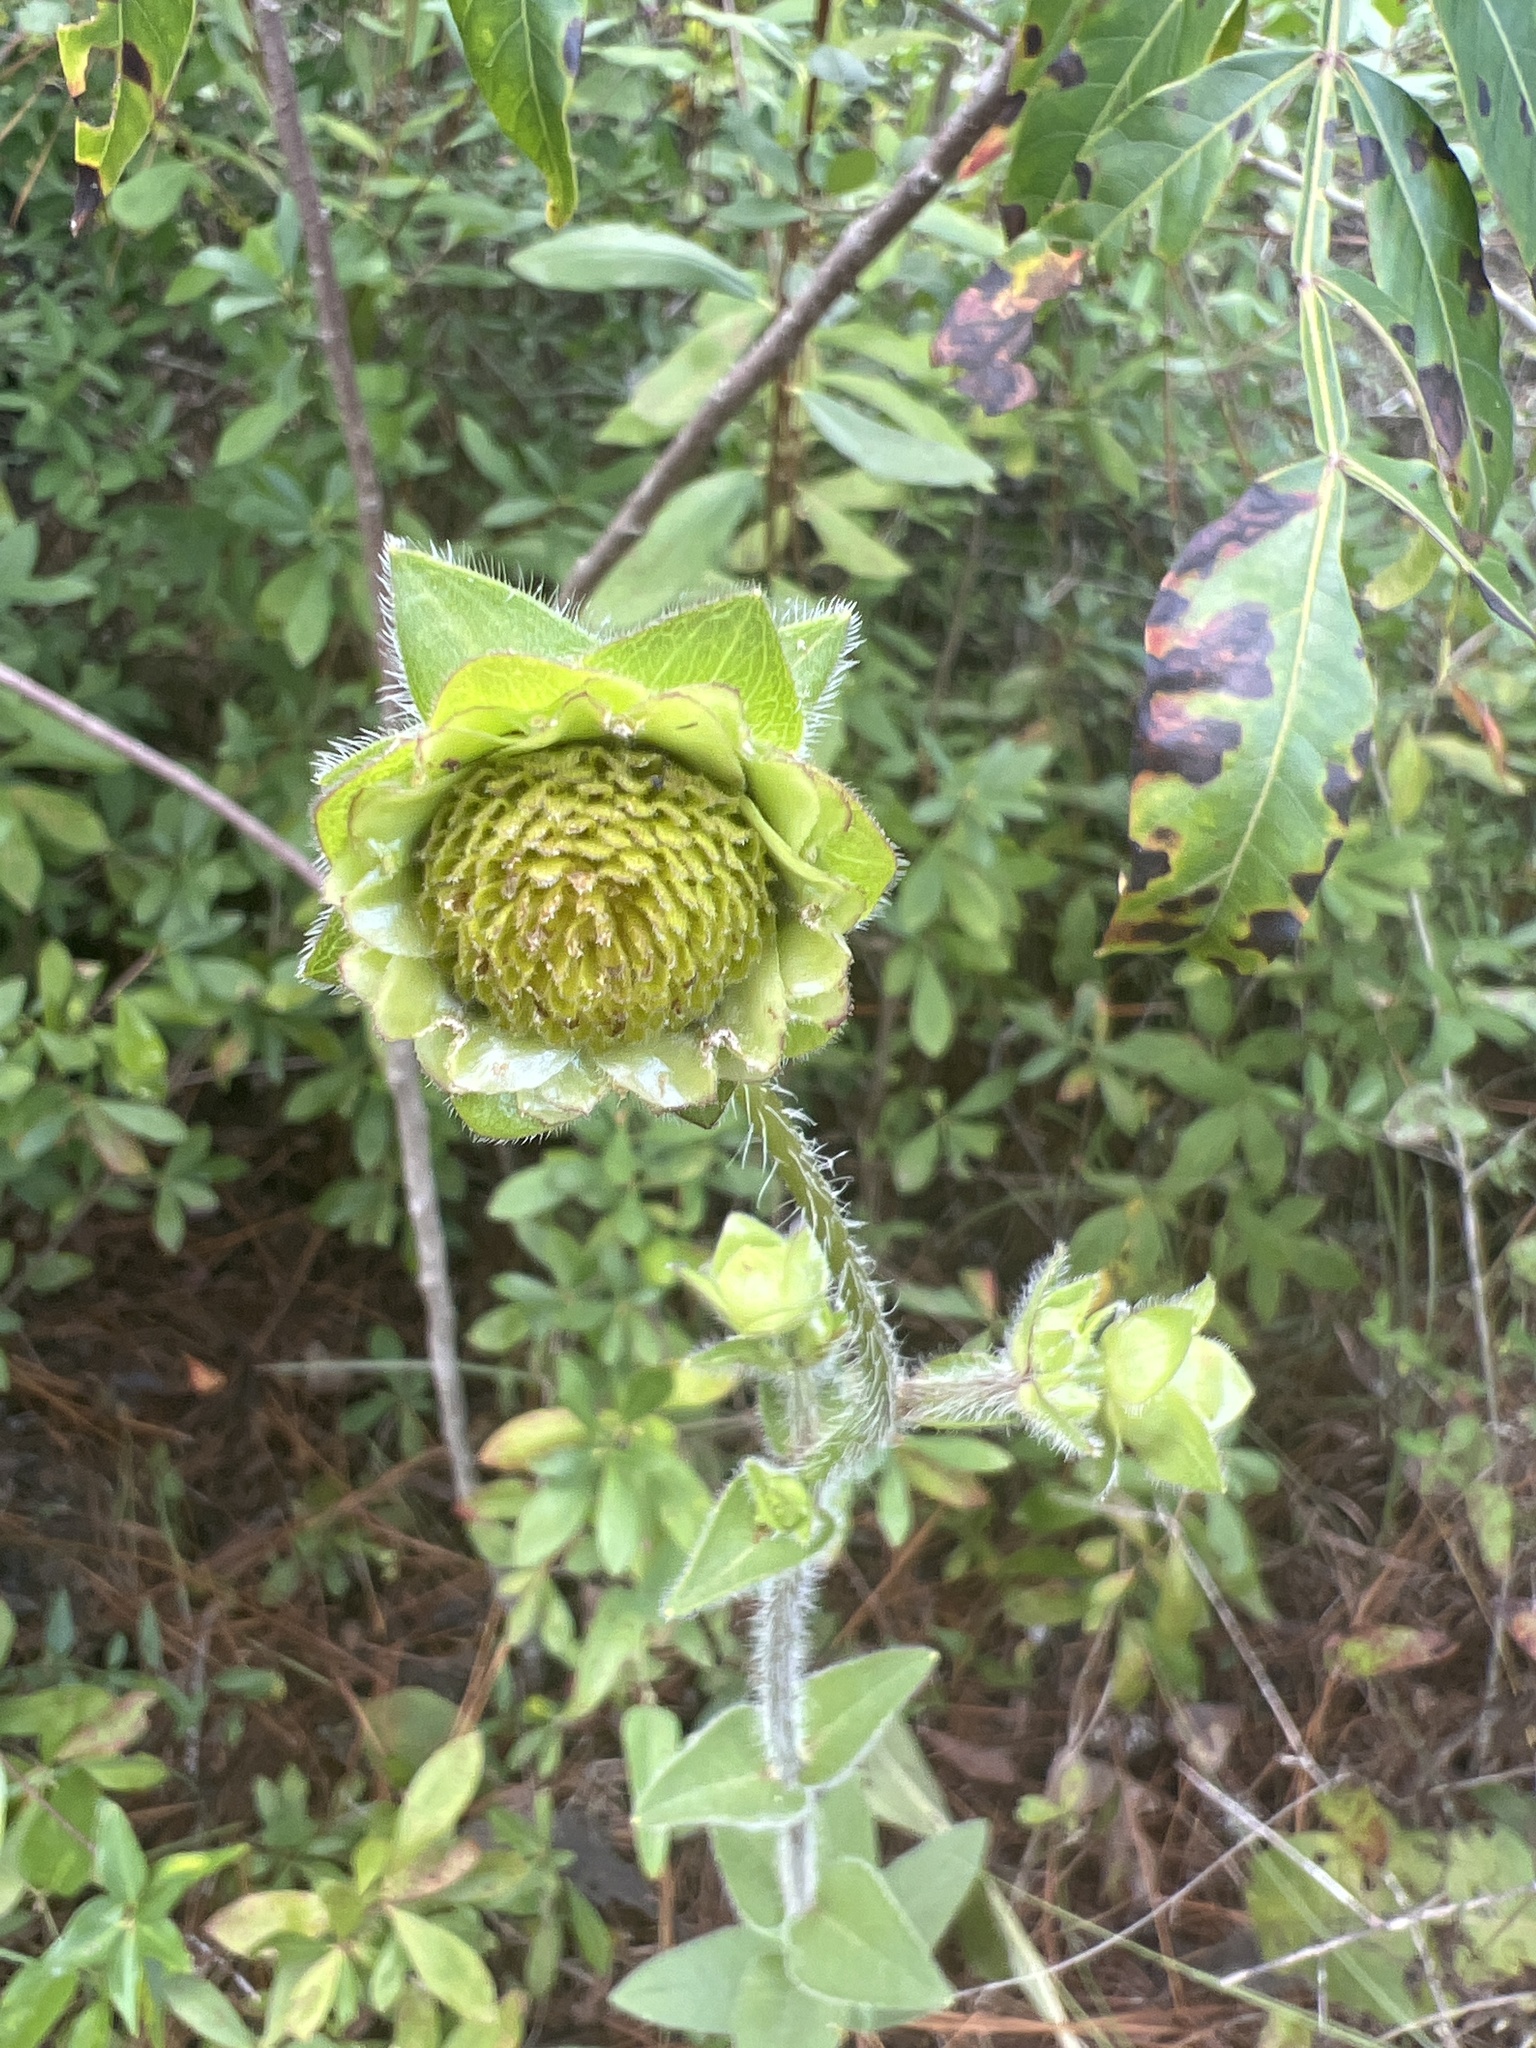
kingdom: Plantae
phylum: Tracheophyta
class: Magnoliopsida
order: Asterales
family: Asteraceae
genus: Silphium
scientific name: Silphium radula
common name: Roughleaf rosinweed
